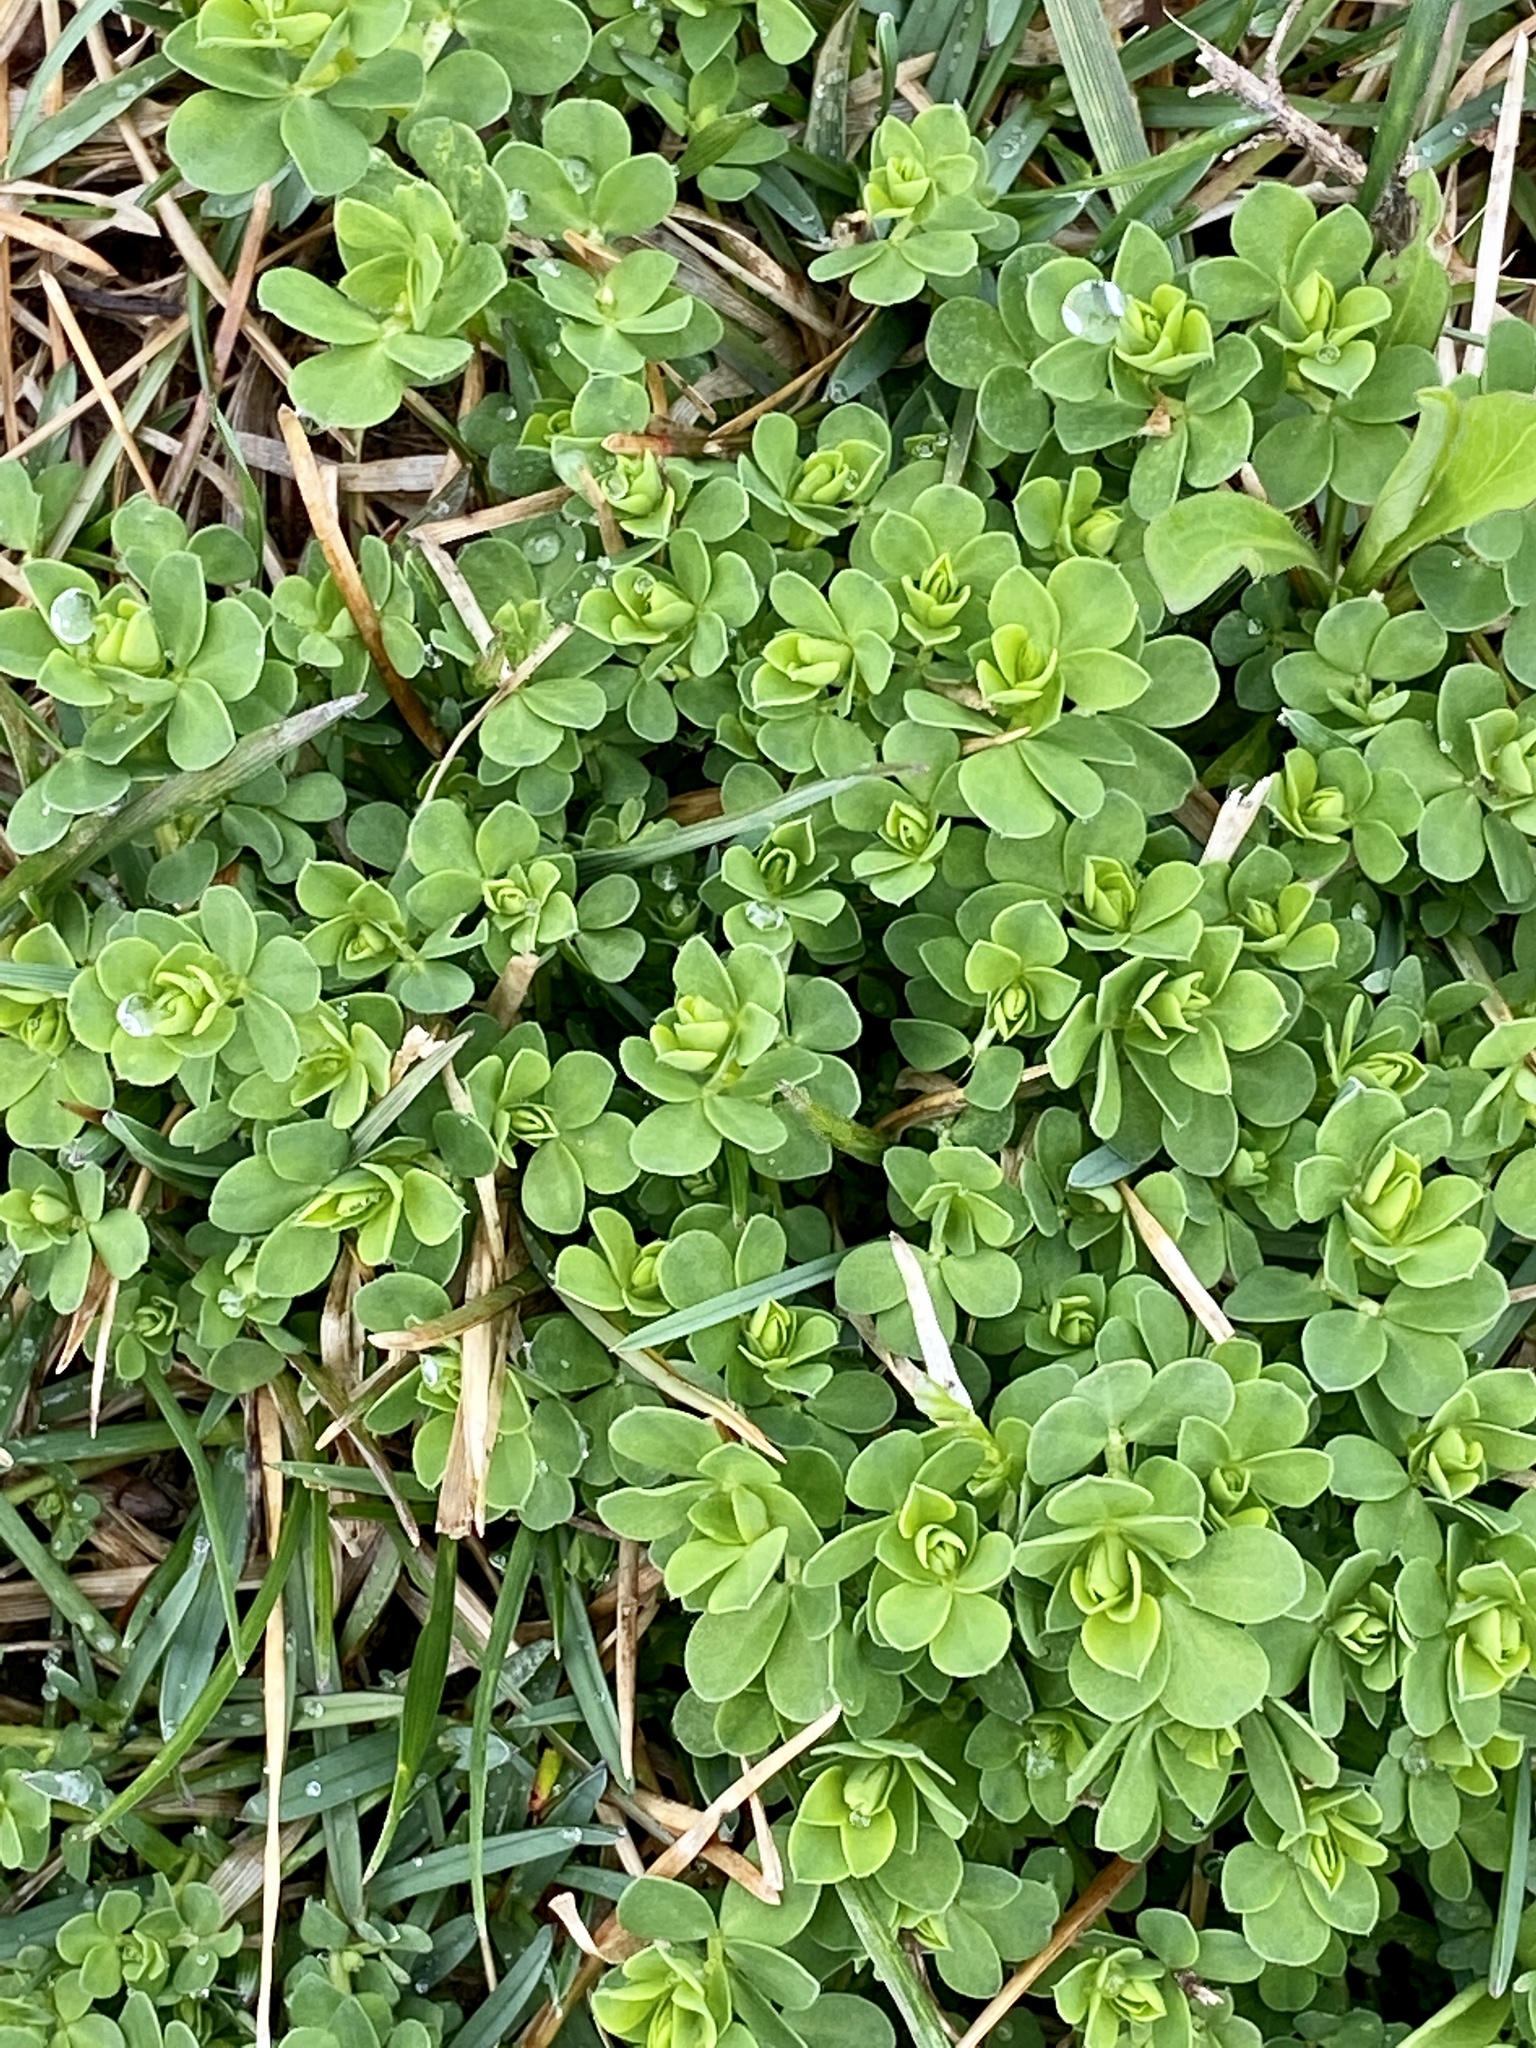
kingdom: Plantae
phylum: Tracheophyta
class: Magnoliopsida
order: Fabales
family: Fabaceae
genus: Lotus
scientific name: Lotus corniculatus
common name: Common bird's-foot-trefoil
